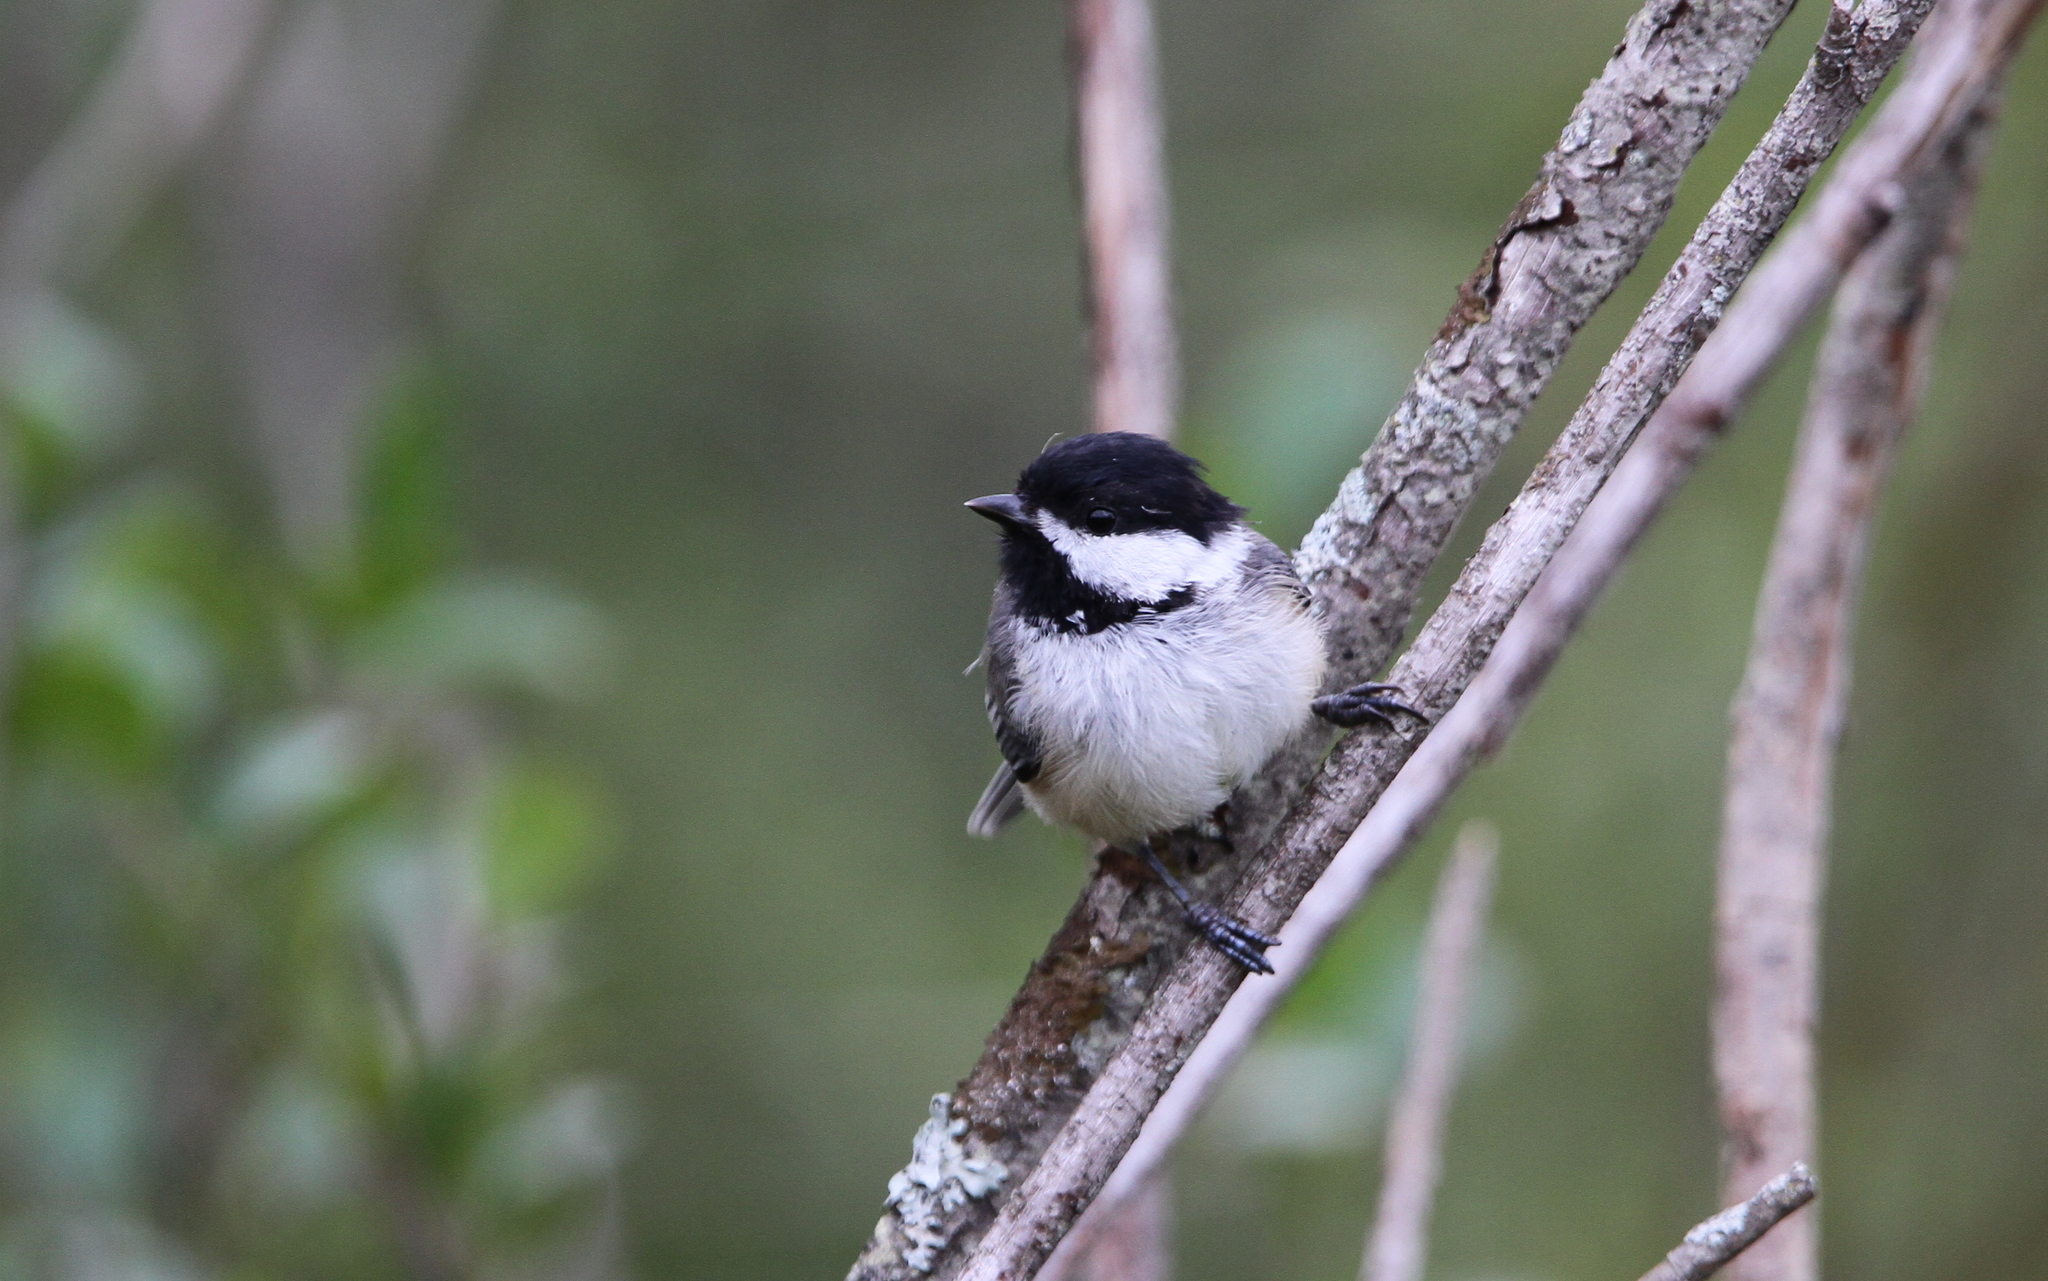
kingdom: Animalia
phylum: Chordata
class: Aves
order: Passeriformes
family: Paridae
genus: Poecile
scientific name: Poecile atricapillus
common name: Black-capped chickadee
